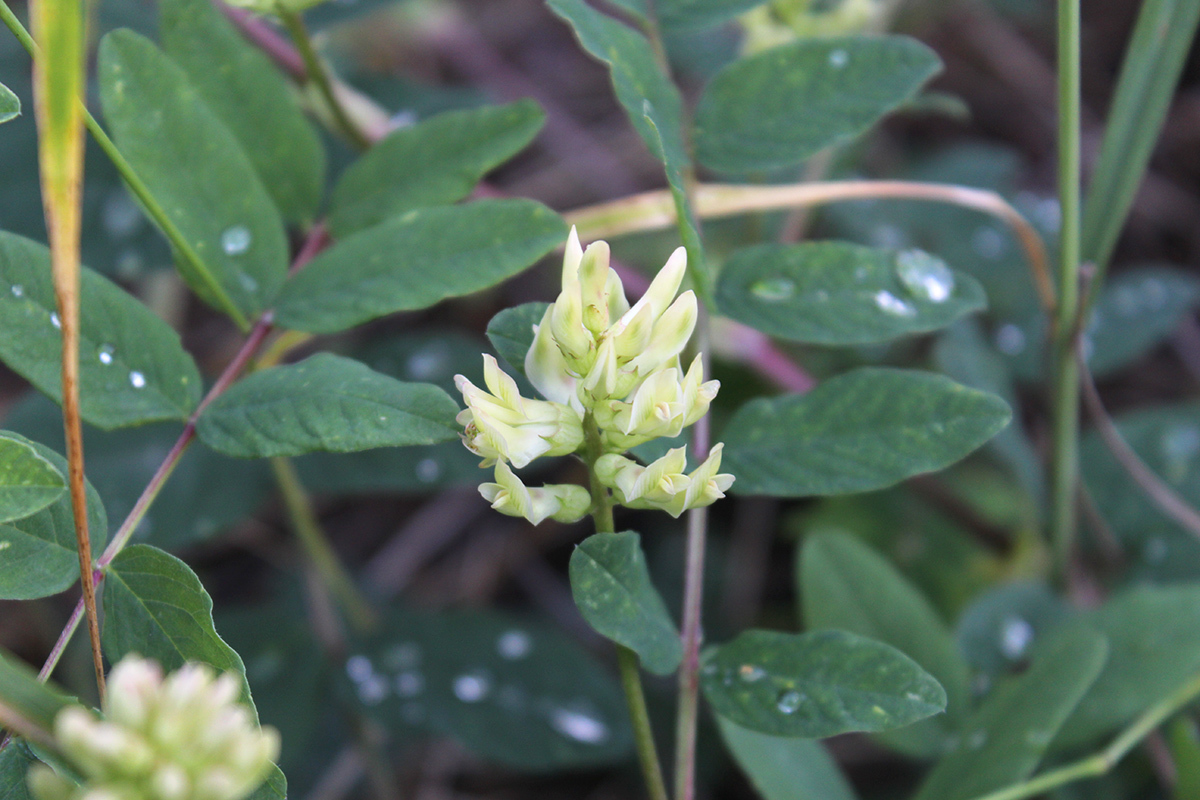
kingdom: Plantae
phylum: Tracheophyta
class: Magnoliopsida
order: Fabales
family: Fabaceae
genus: Astragalus
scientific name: Astragalus glycyphyllos
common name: Wild liquorice
